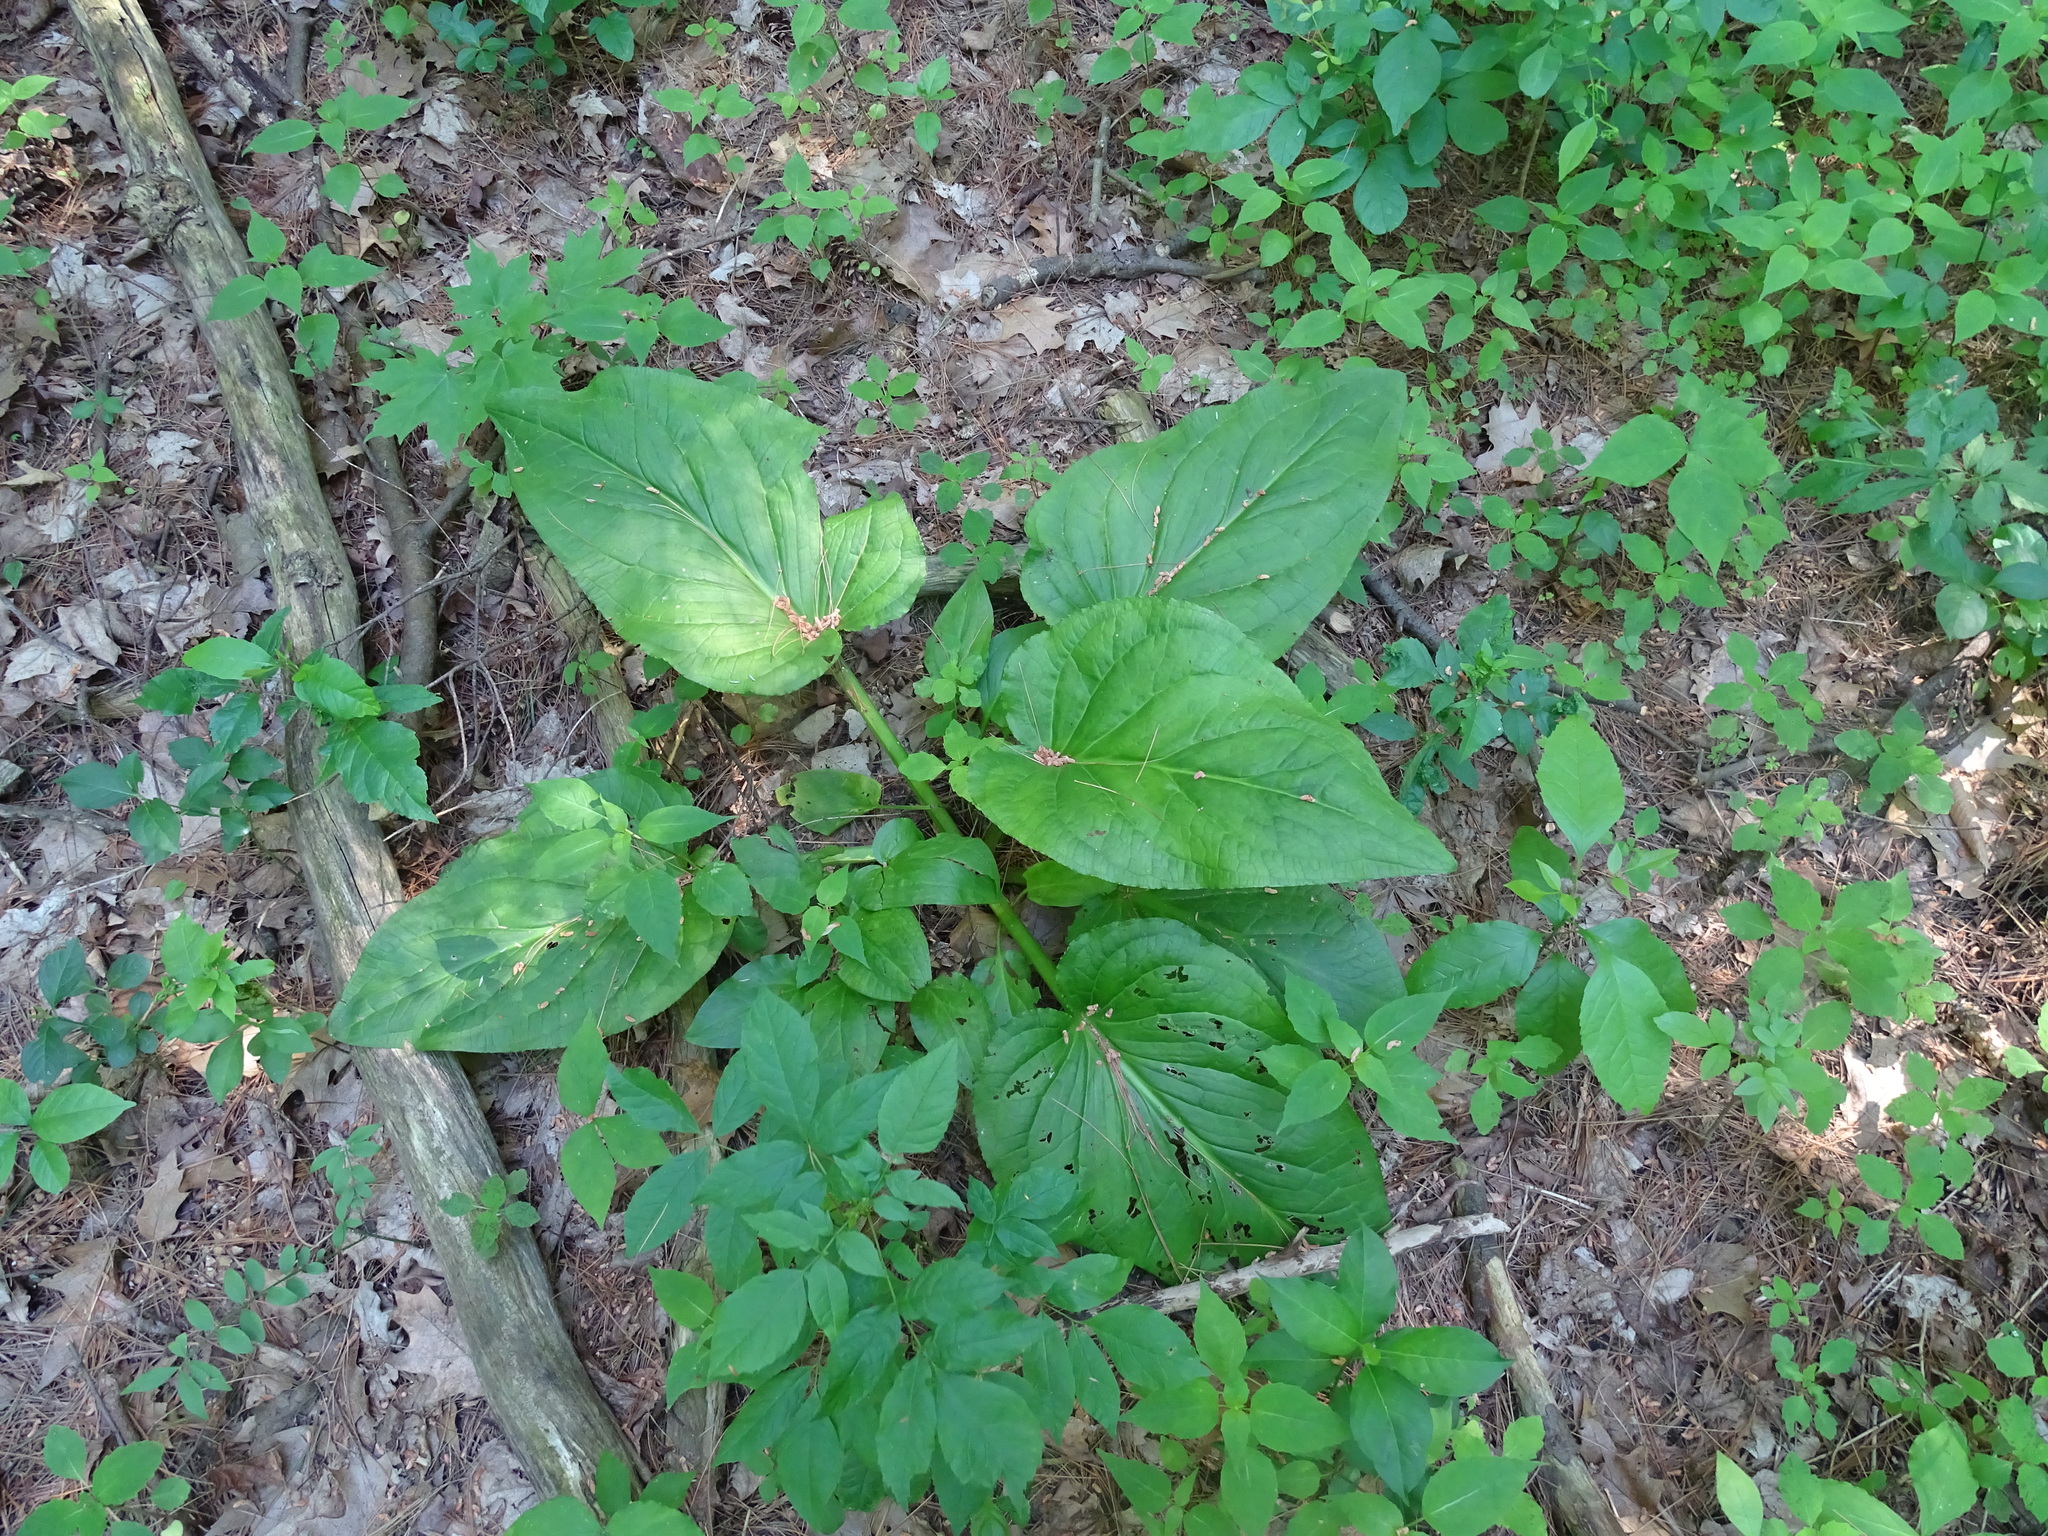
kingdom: Plantae
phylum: Tracheophyta
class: Liliopsida
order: Alismatales
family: Araceae
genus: Symplocarpus
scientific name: Symplocarpus foetidus
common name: Eastern skunk cabbage
